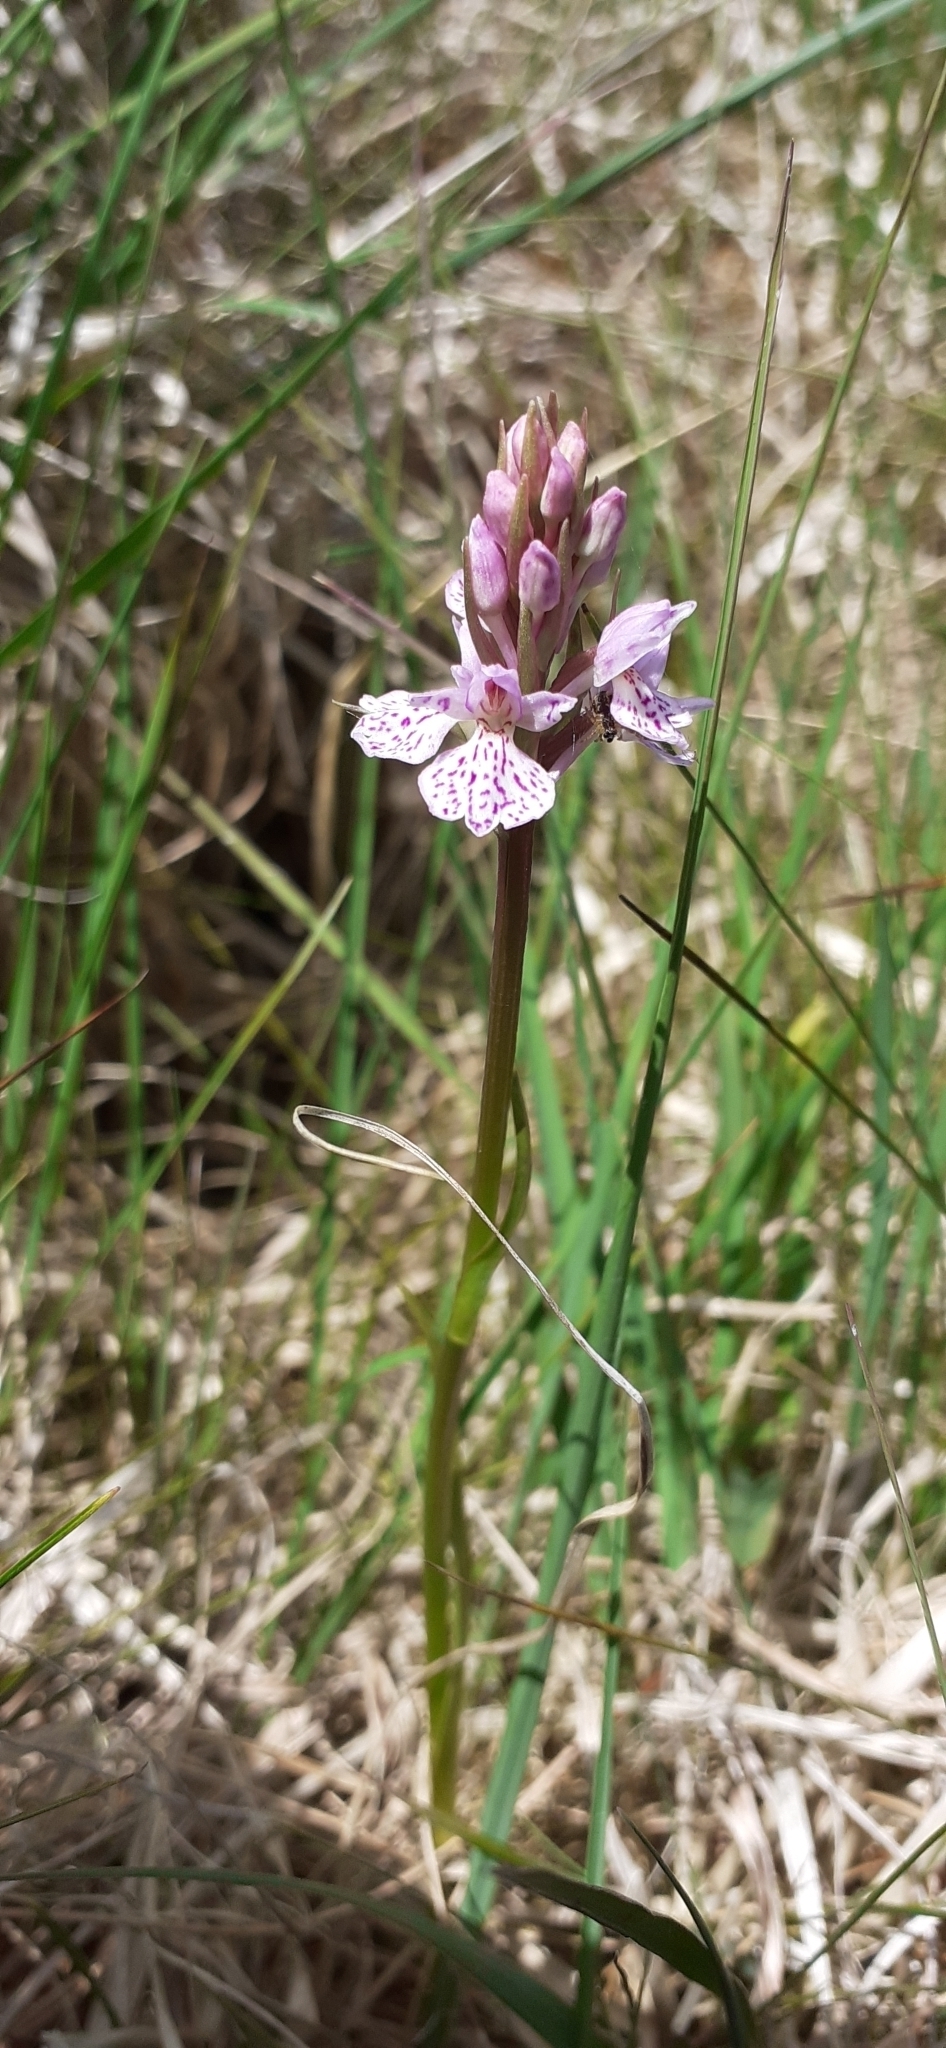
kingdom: Plantae
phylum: Tracheophyta
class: Liliopsida
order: Asparagales
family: Orchidaceae
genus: Dactylorhiza
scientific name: Dactylorhiza maculata
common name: Heath spotted-orchid
